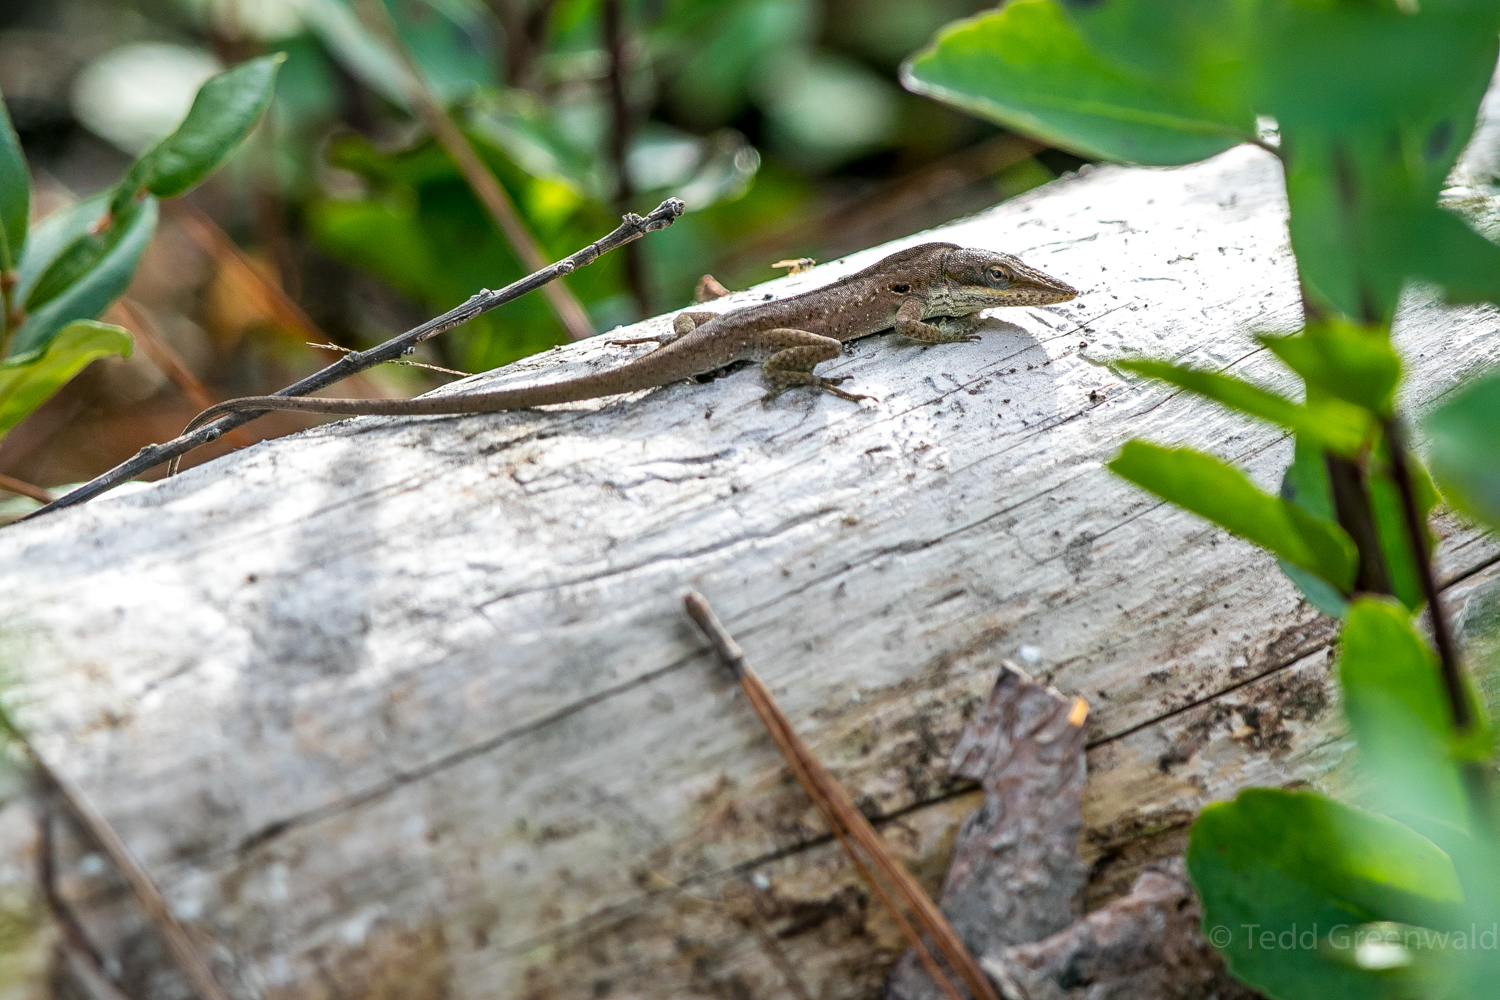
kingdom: Animalia
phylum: Chordata
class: Squamata
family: Dactyloidae
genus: Anolis
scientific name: Anolis carolinensis
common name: Green anole
